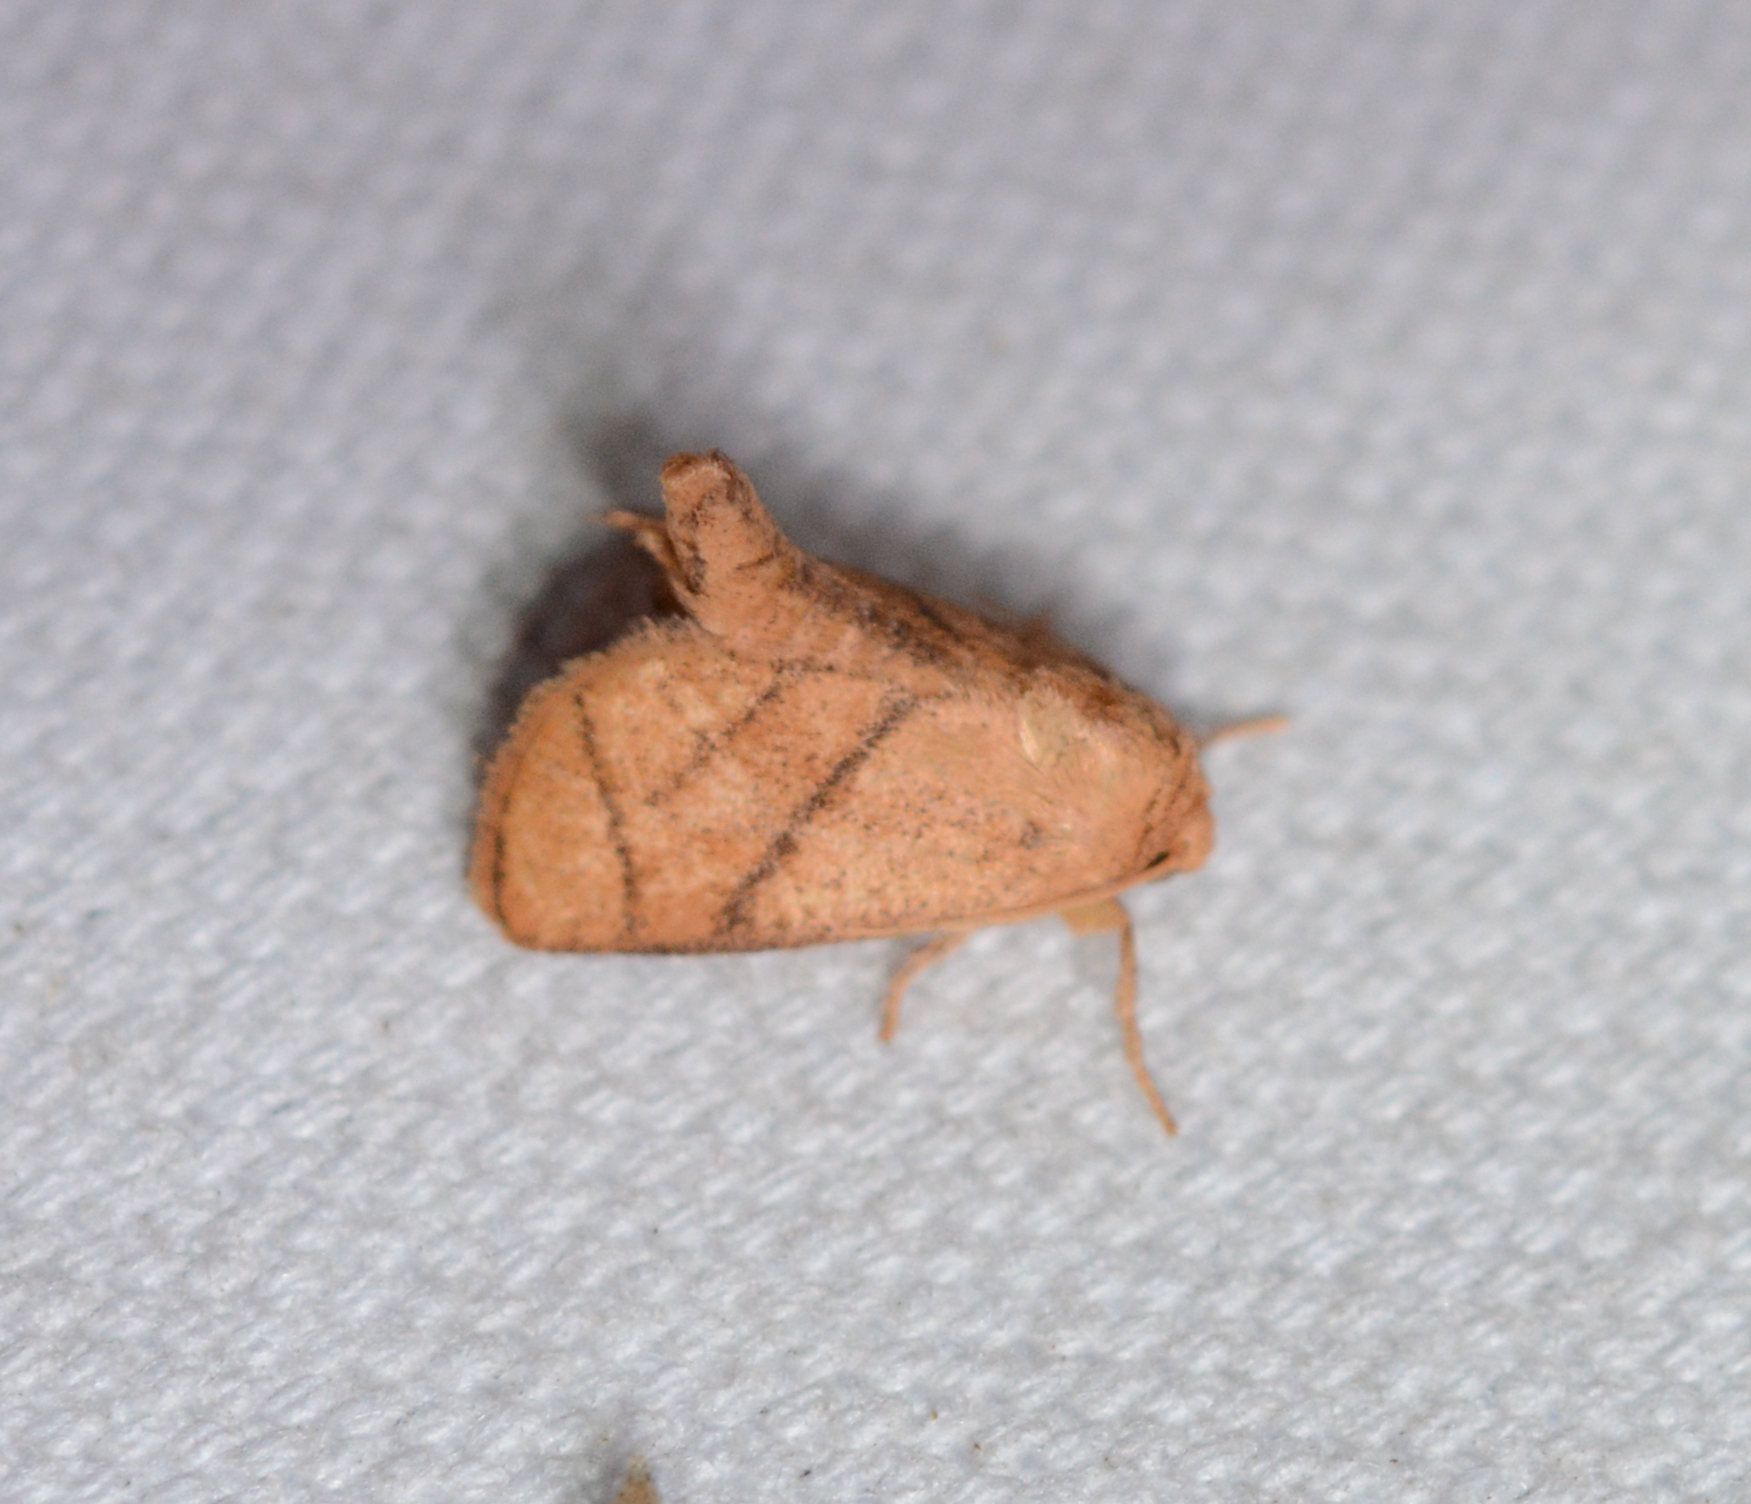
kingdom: Animalia
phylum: Arthropoda
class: Insecta
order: Lepidoptera
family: Limacodidae
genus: Apoda
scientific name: Apoda y-inversa
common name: Yellow-collared slug moth
